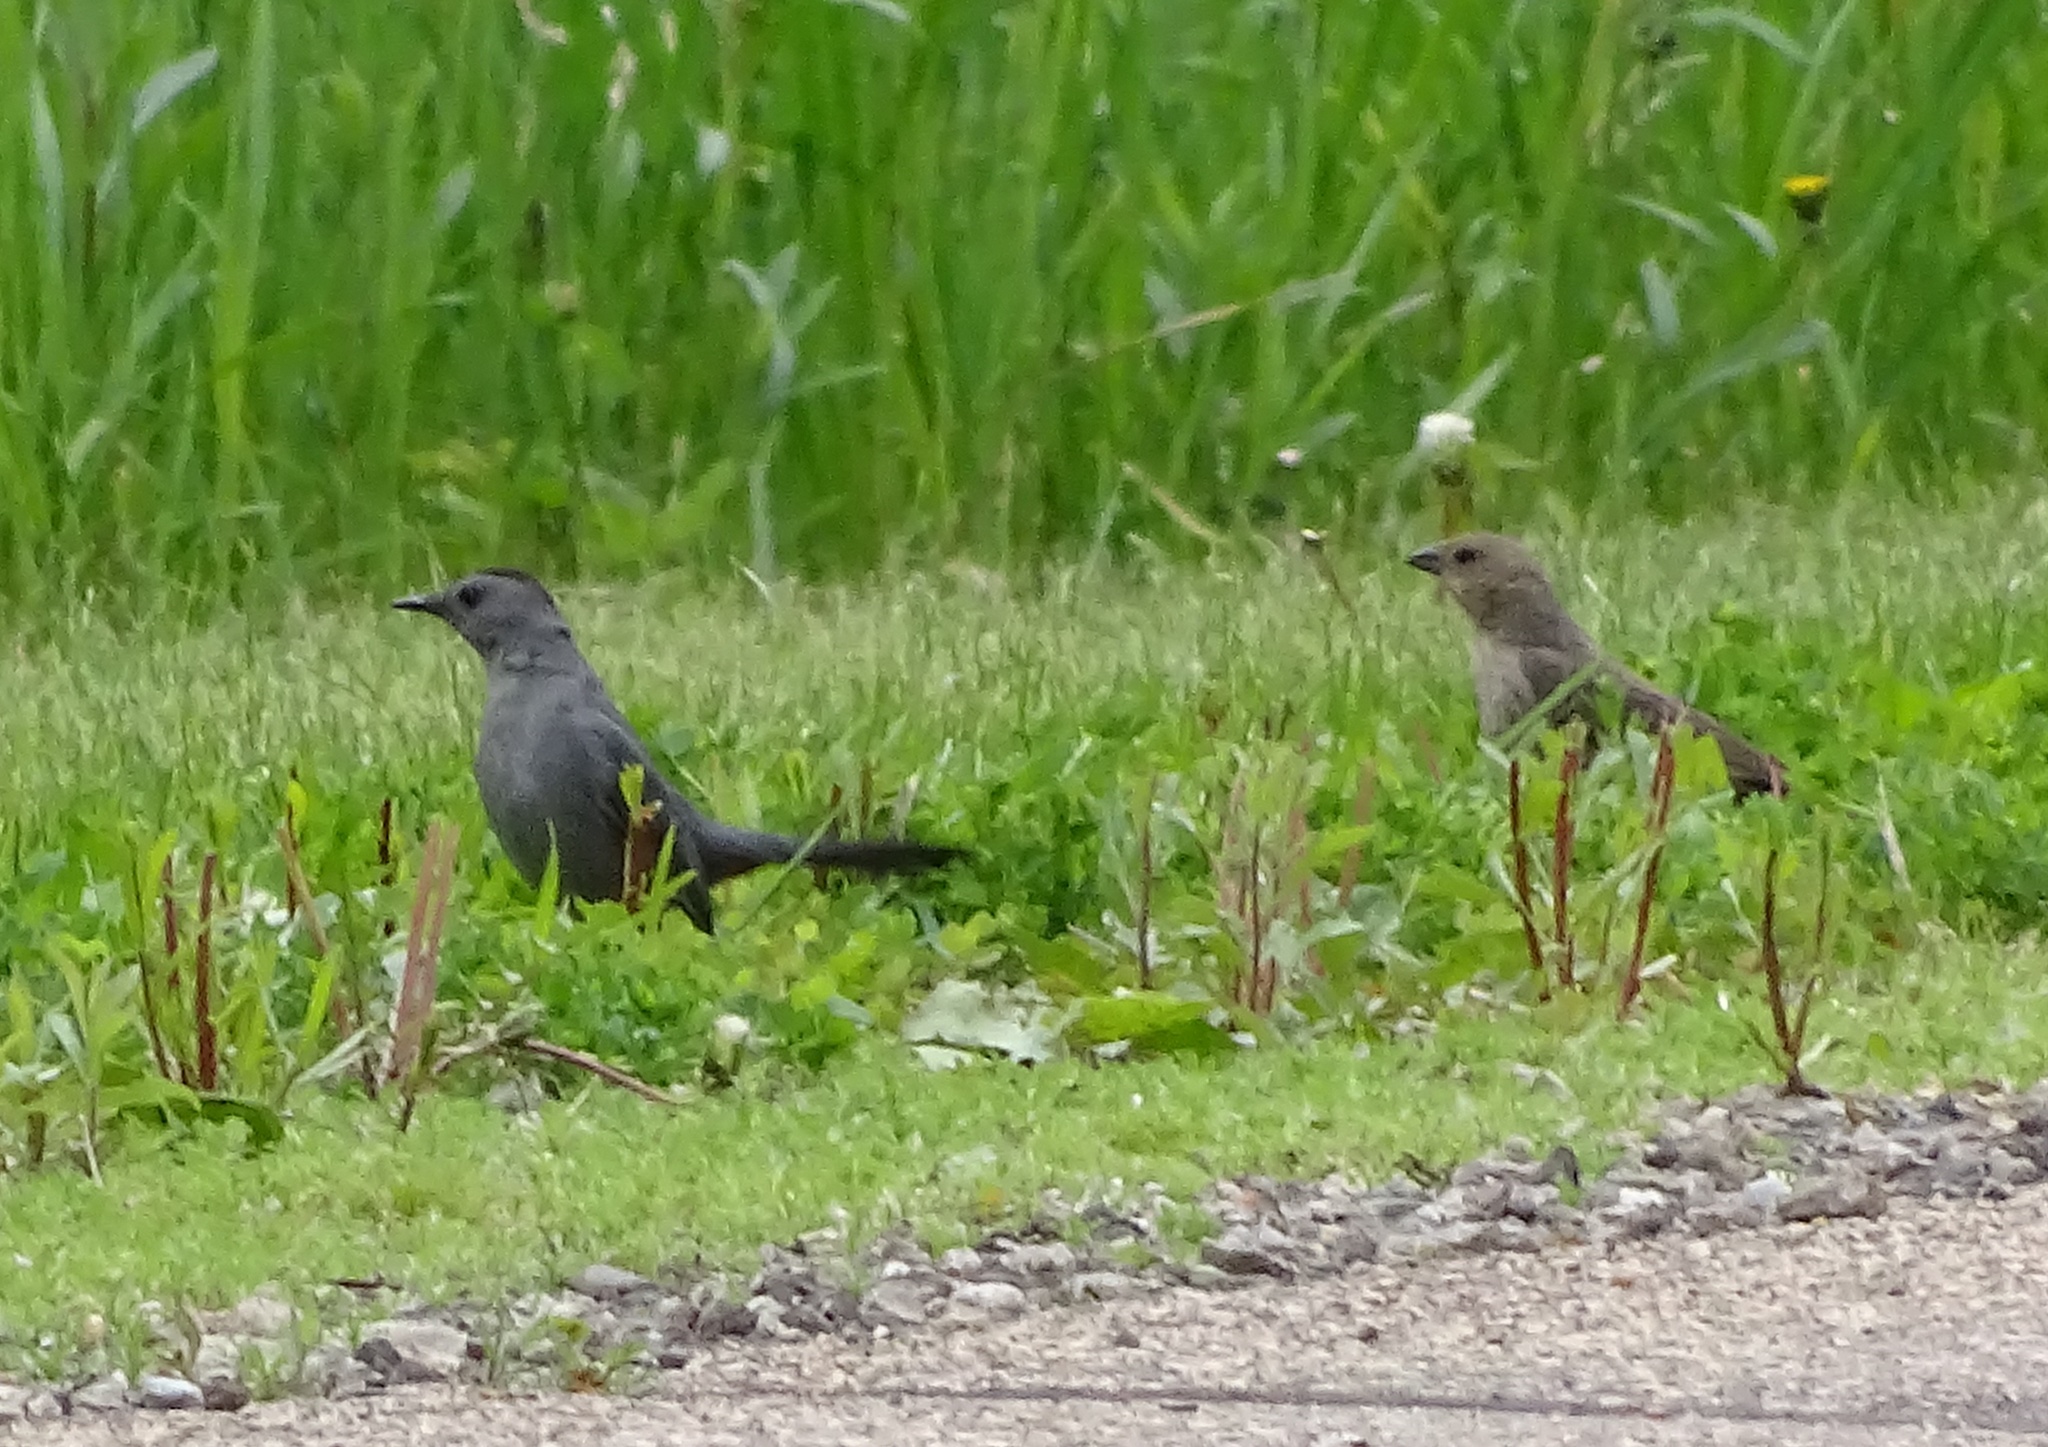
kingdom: Animalia
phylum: Chordata
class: Aves
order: Passeriformes
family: Mimidae
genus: Dumetella
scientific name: Dumetella carolinensis
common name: Gray catbird
